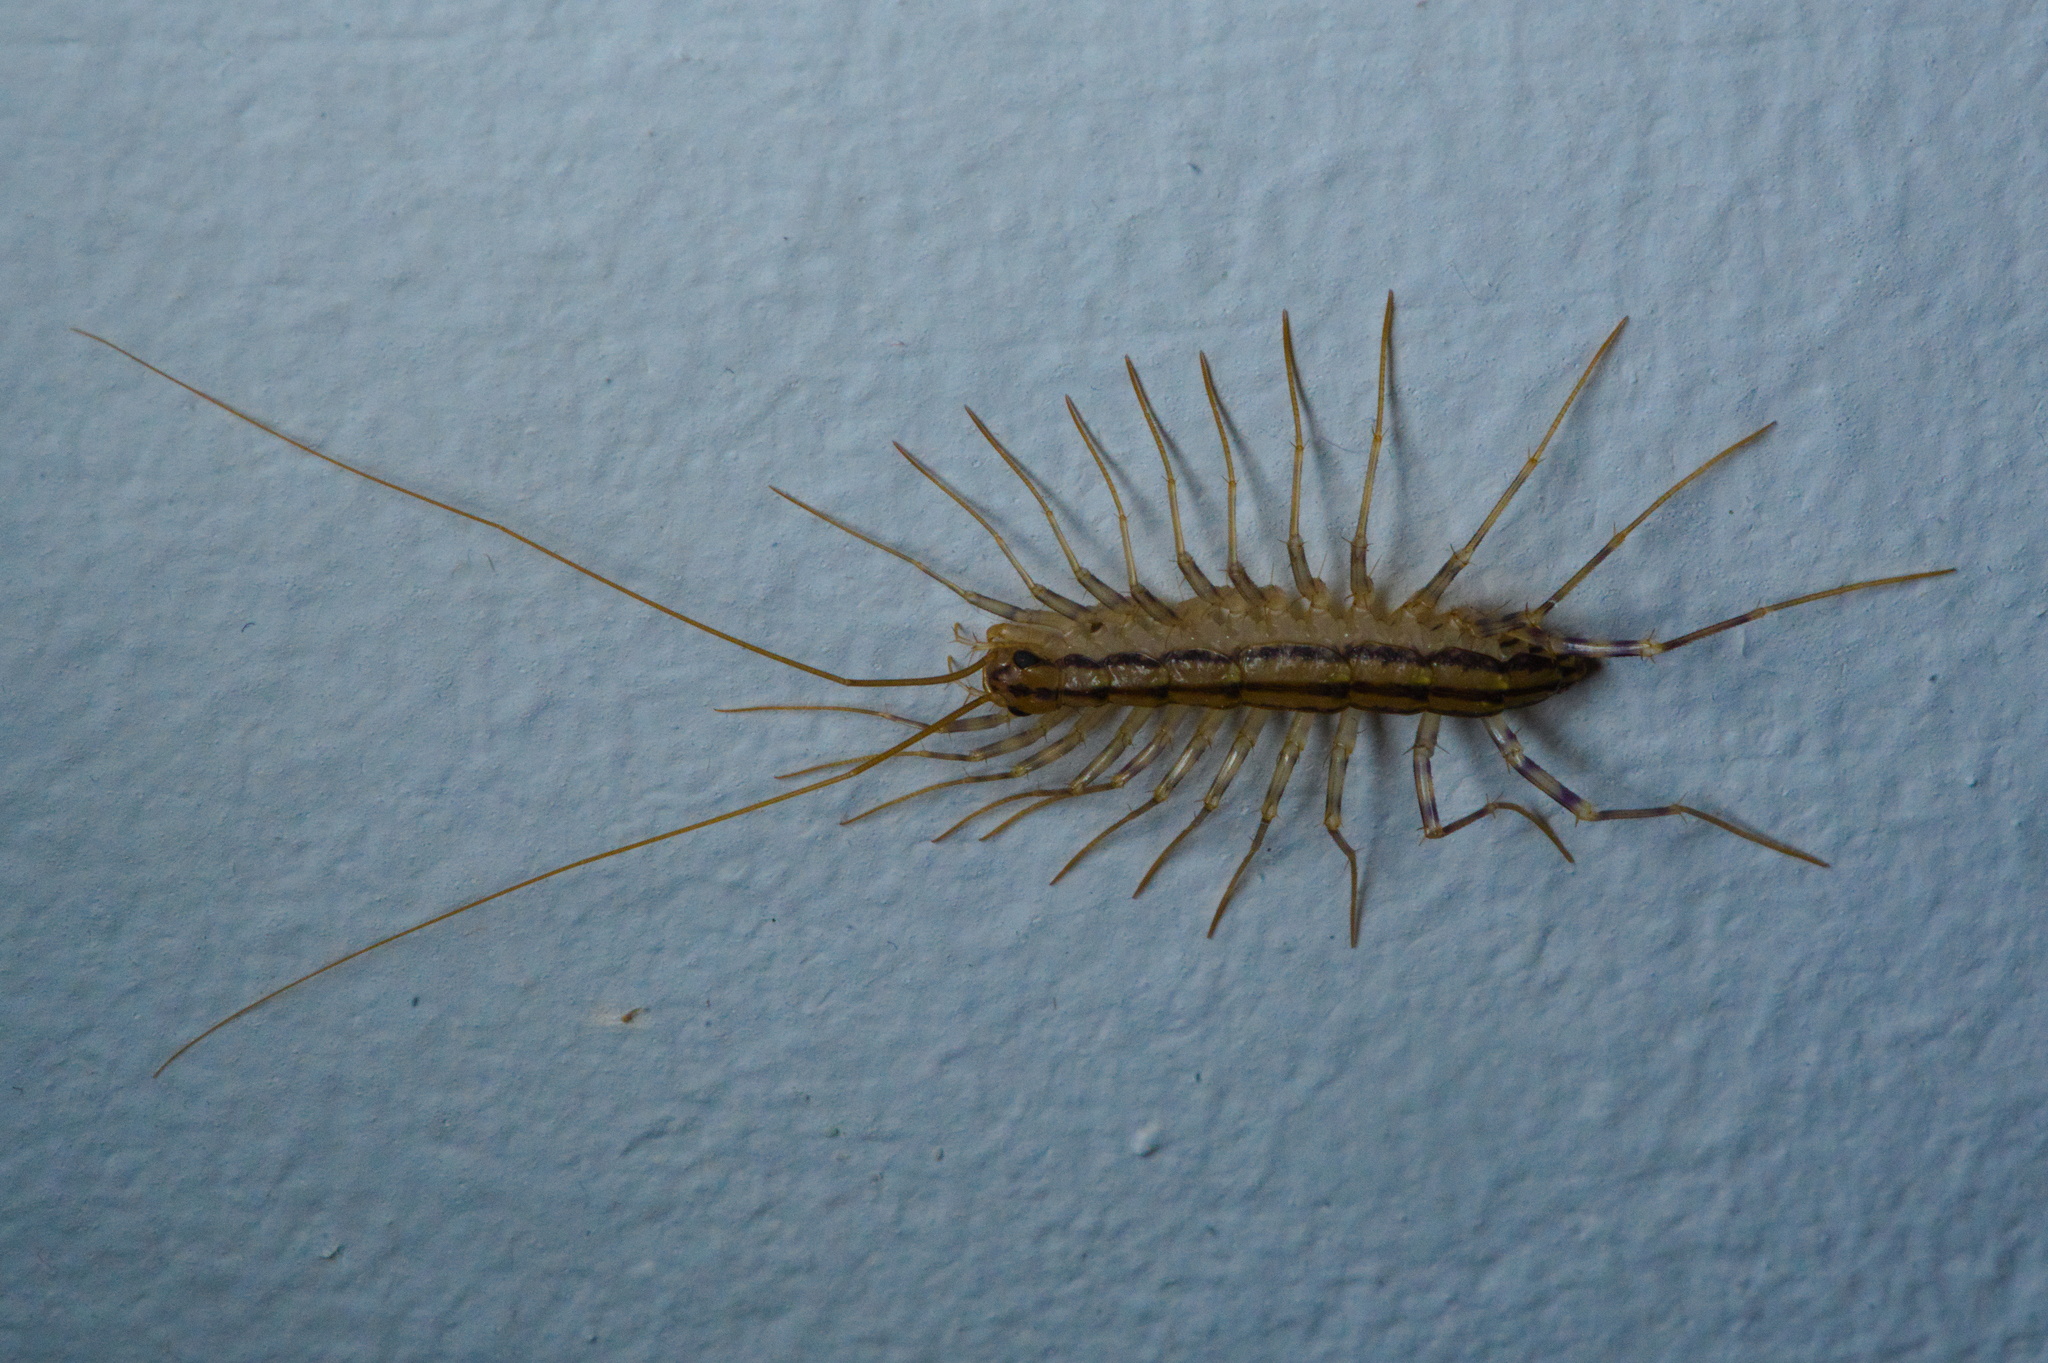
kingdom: Animalia
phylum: Arthropoda
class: Chilopoda
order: Scutigeromorpha
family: Scutigeridae
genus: Scutigera
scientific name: Scutigera coleoptrata
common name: House centipede
